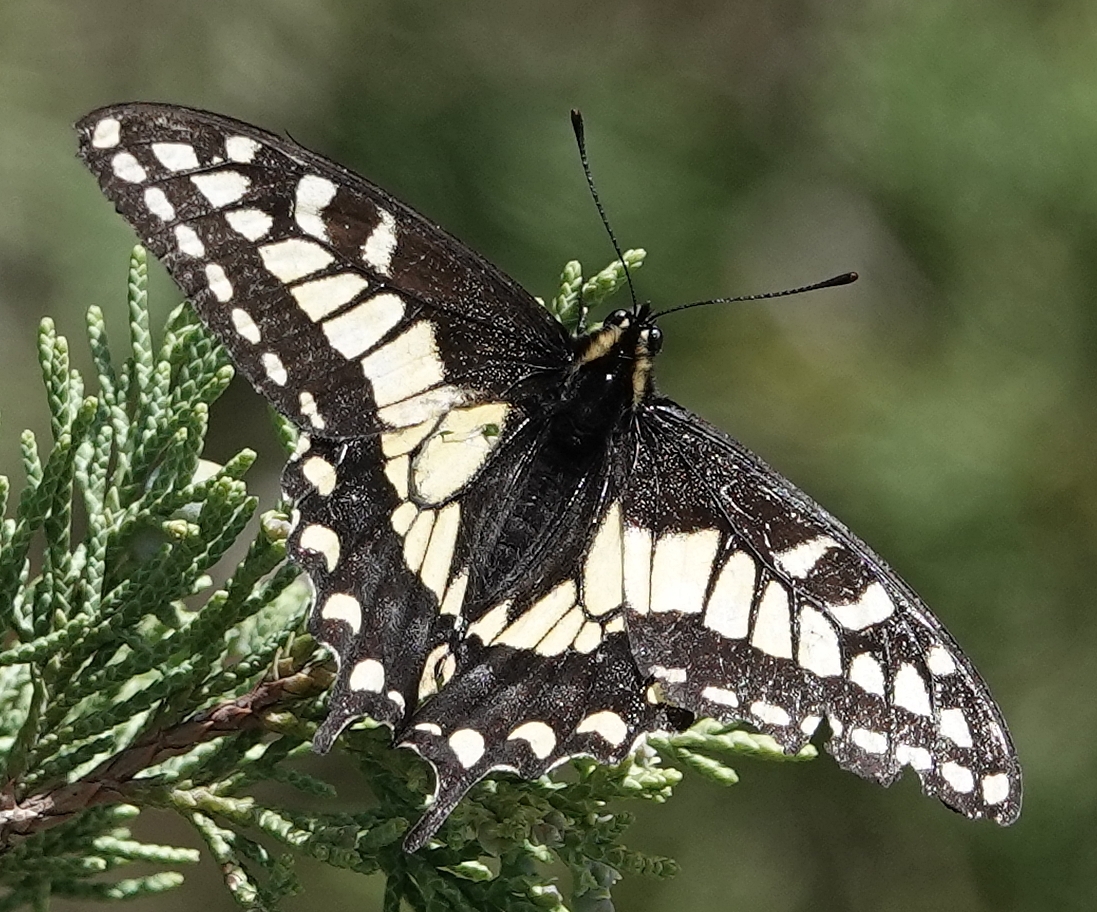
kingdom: Animalia
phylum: Arthropoda
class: Insecta
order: Lepidoptera
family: Papilionidae
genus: Papilio
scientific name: Papilio zelicaon
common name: Anise swallowtail
